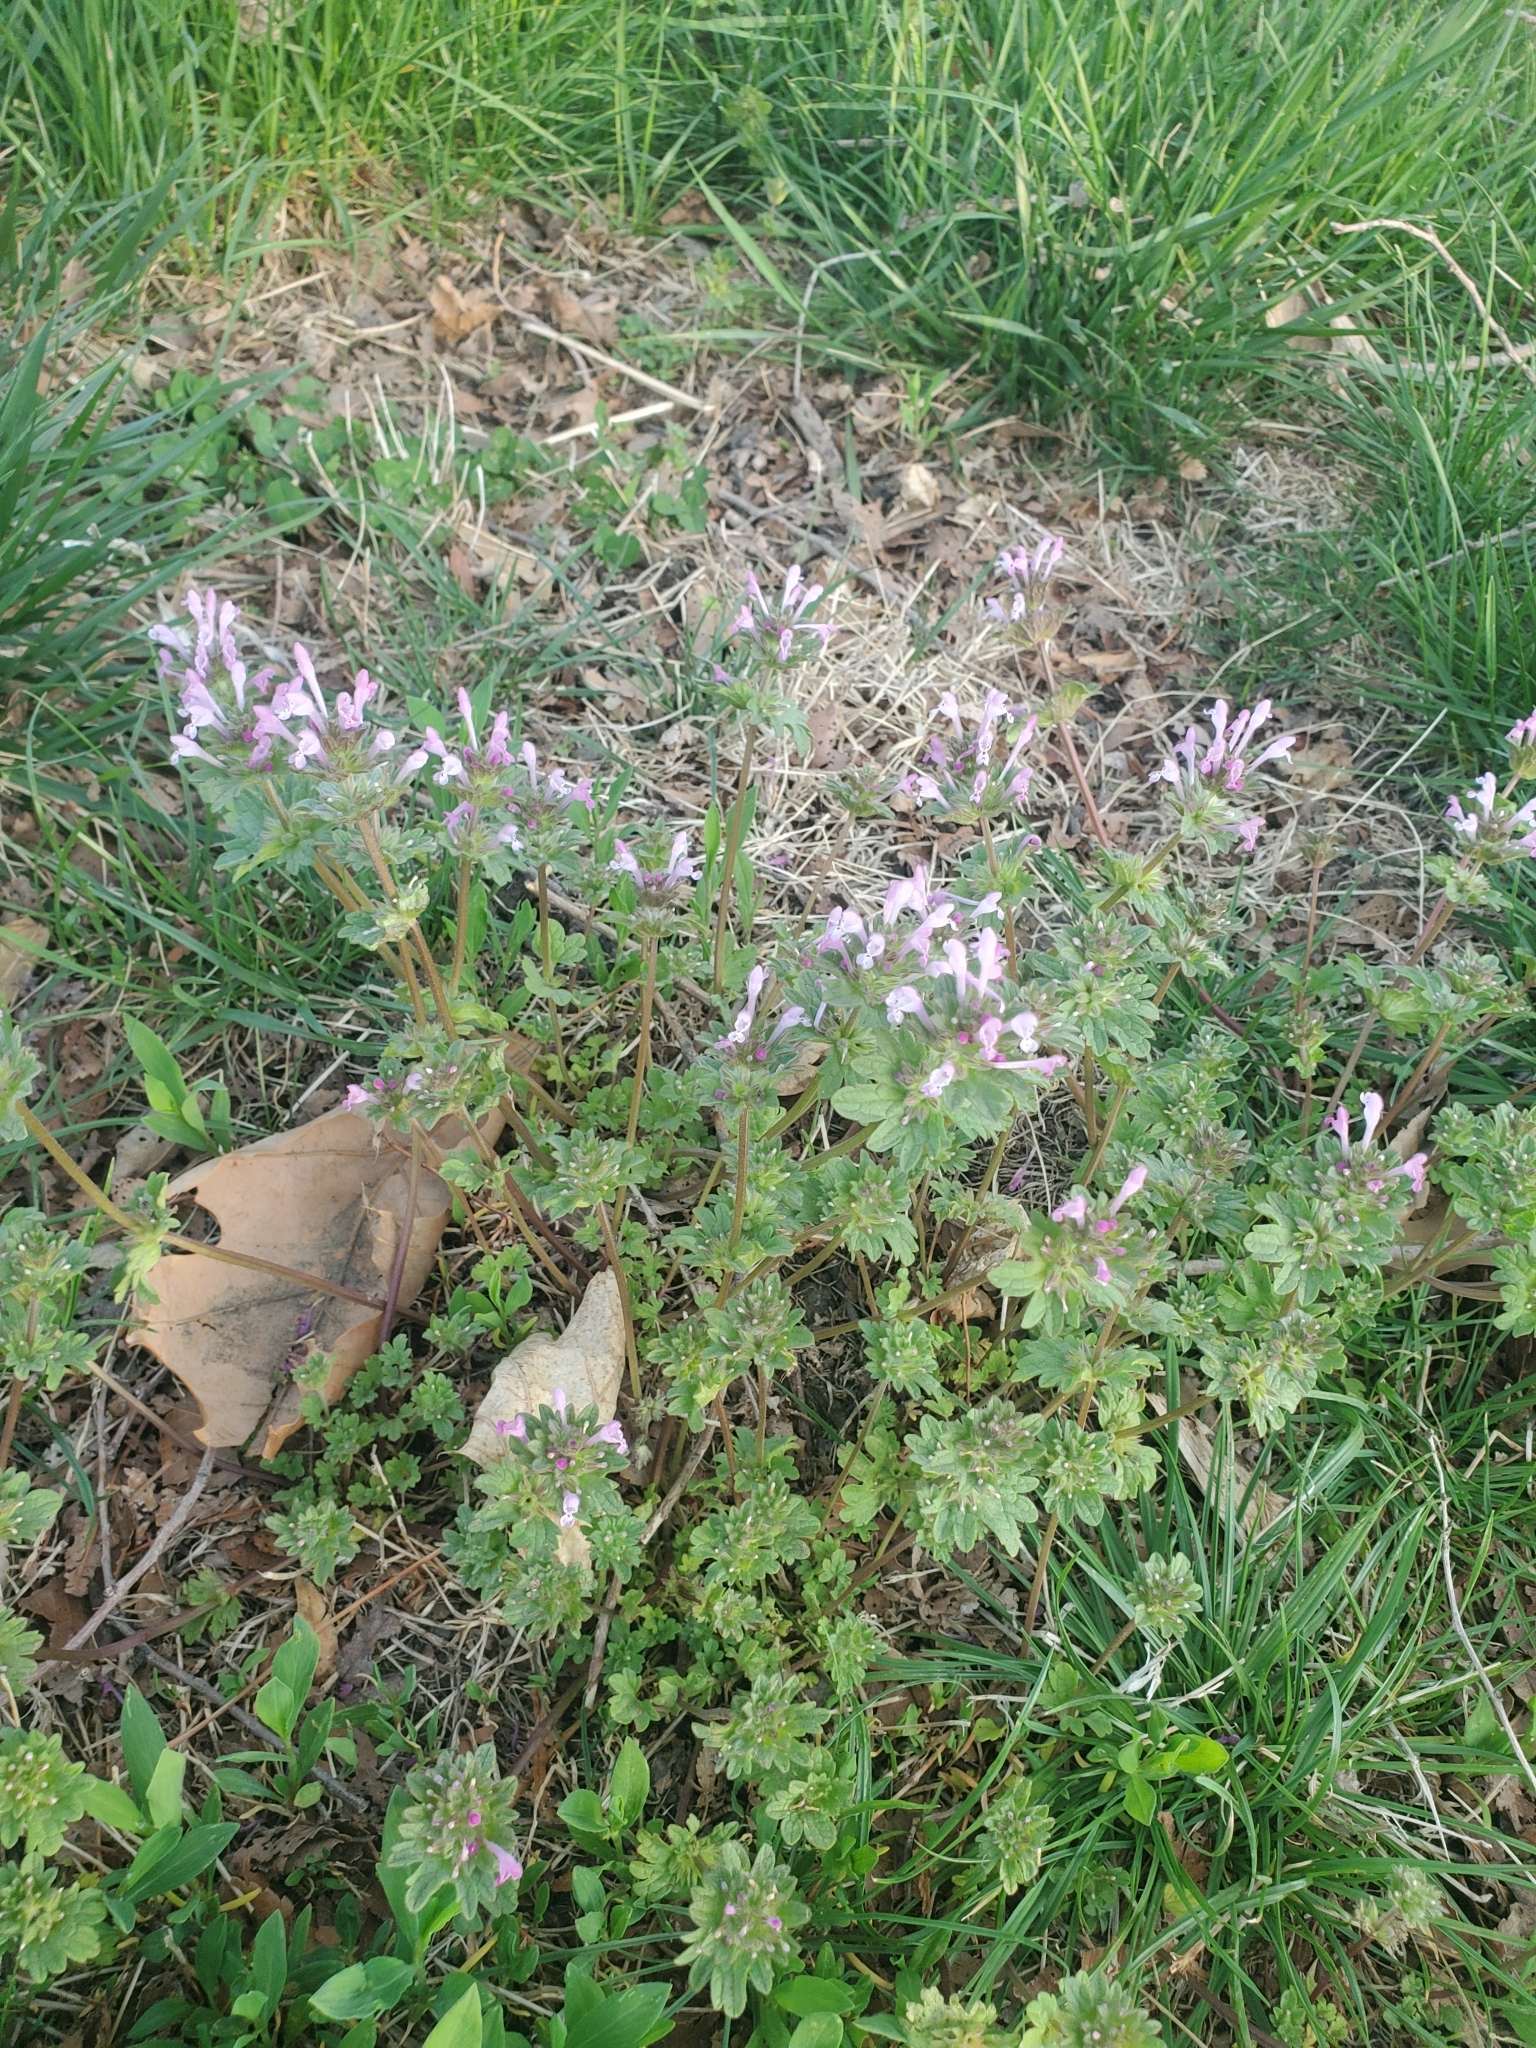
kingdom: Plantae
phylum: Tracheophyta
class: Magnoliopsida
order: Lamiales
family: Lamiaceae
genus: Lamium
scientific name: Lamium amplexicaule
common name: Henbit dead-nettle
